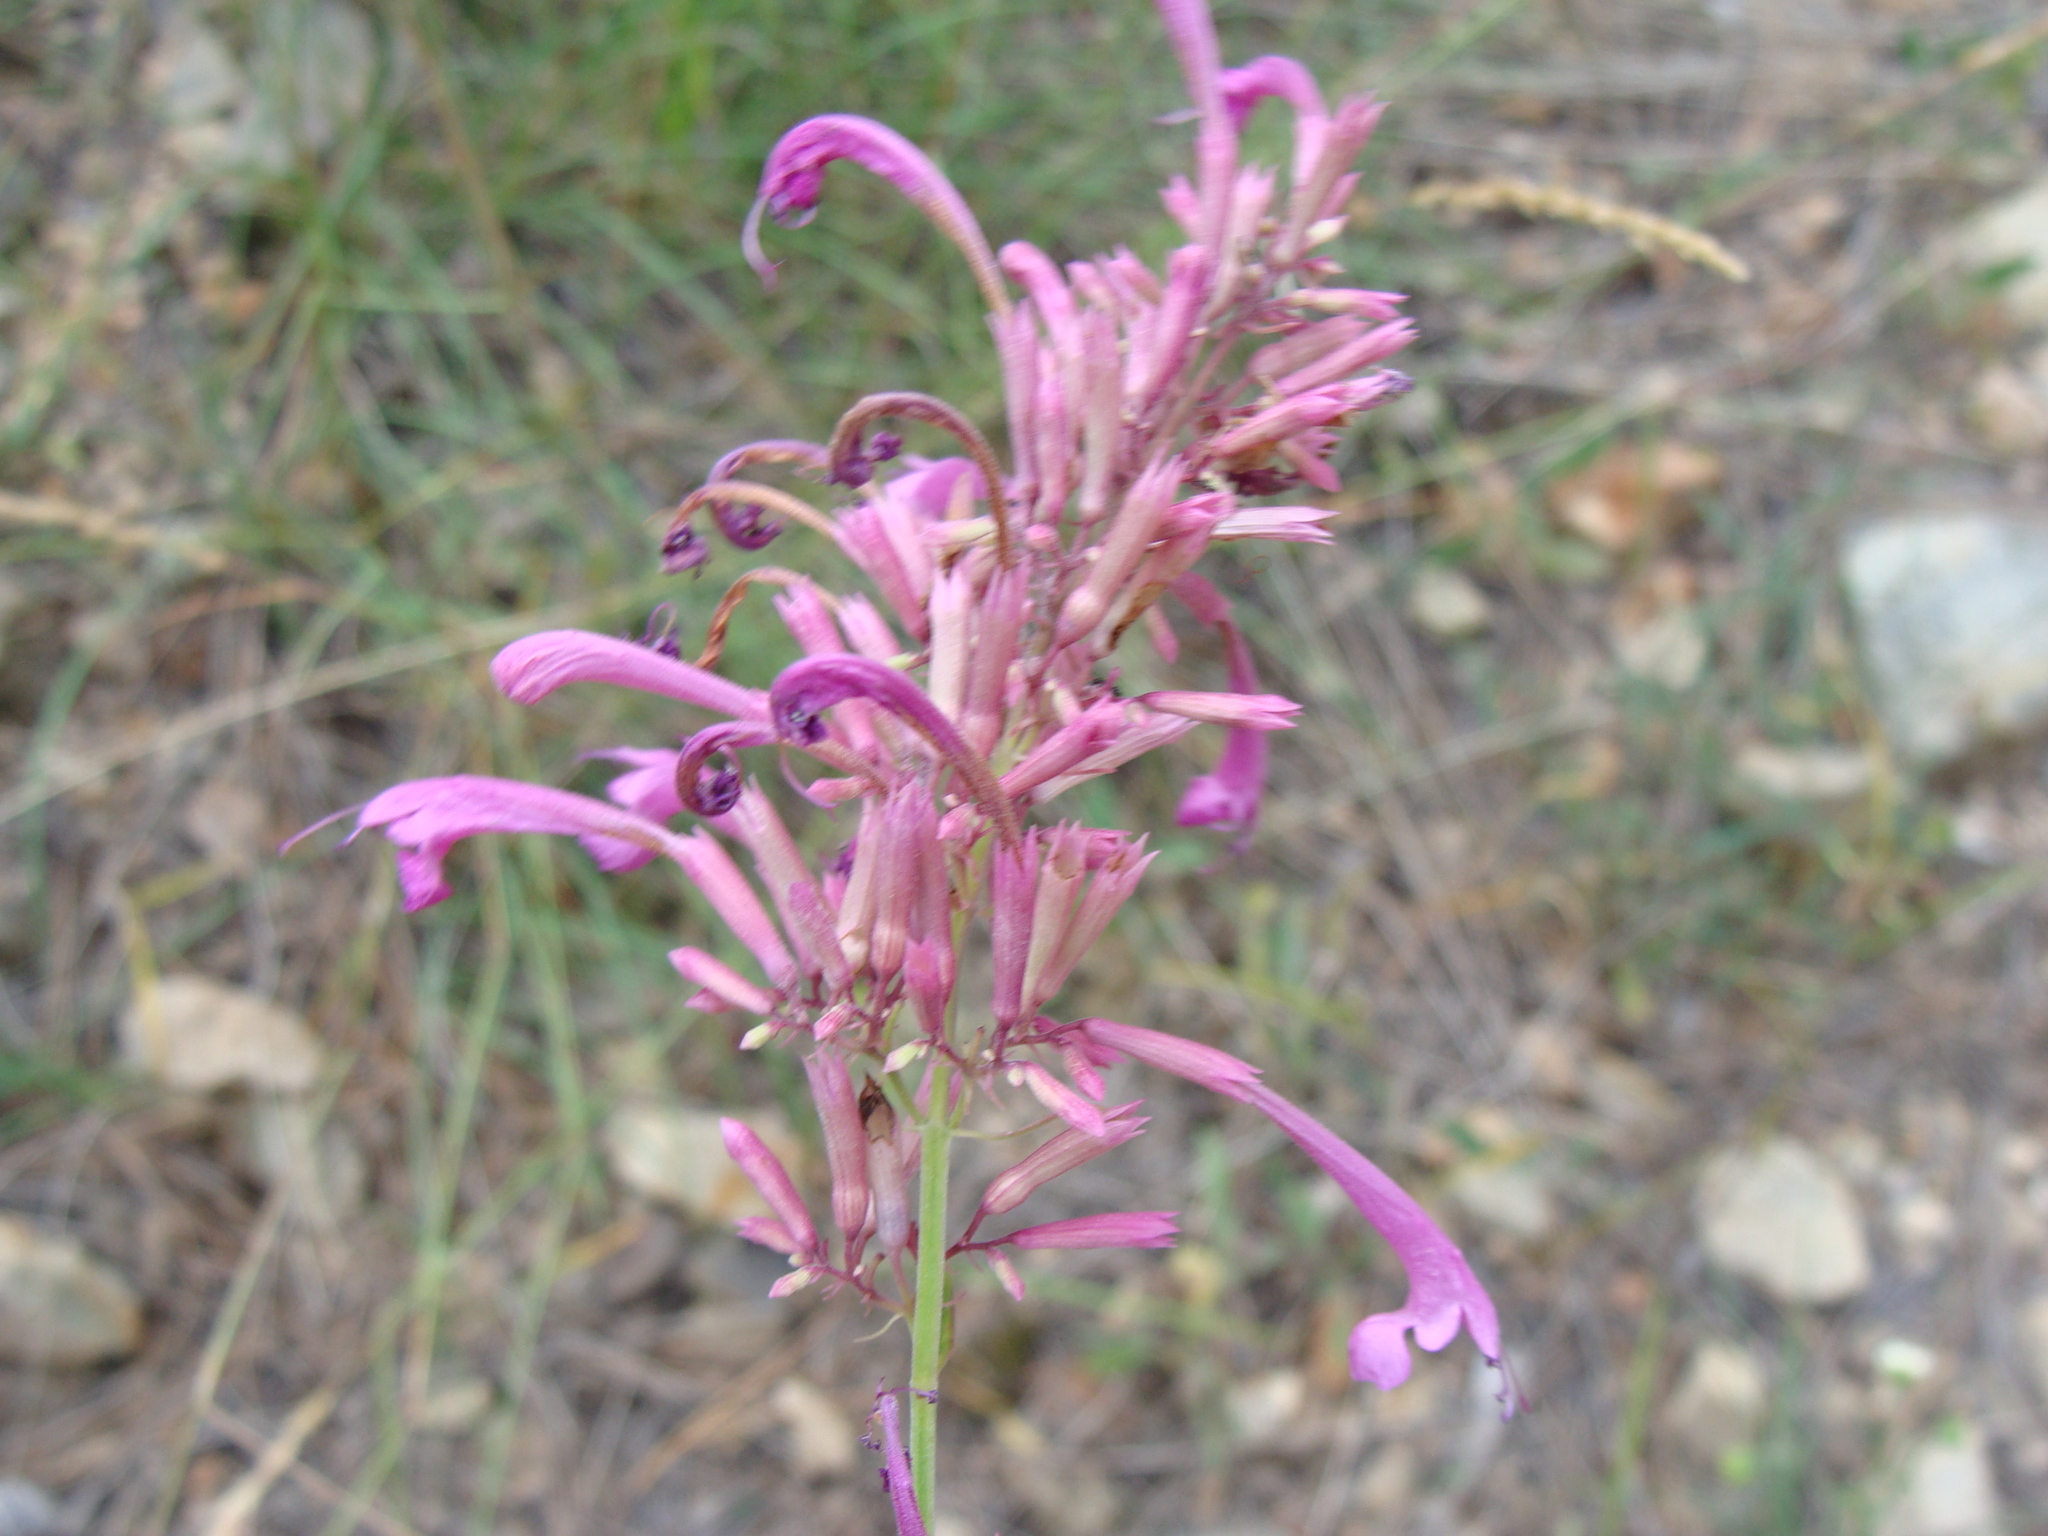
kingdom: Plantae
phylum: Tracheophyta
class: Magnoliopsida
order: Lamiales
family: Lamiaceae
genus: Agastache
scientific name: Agastache pallida
